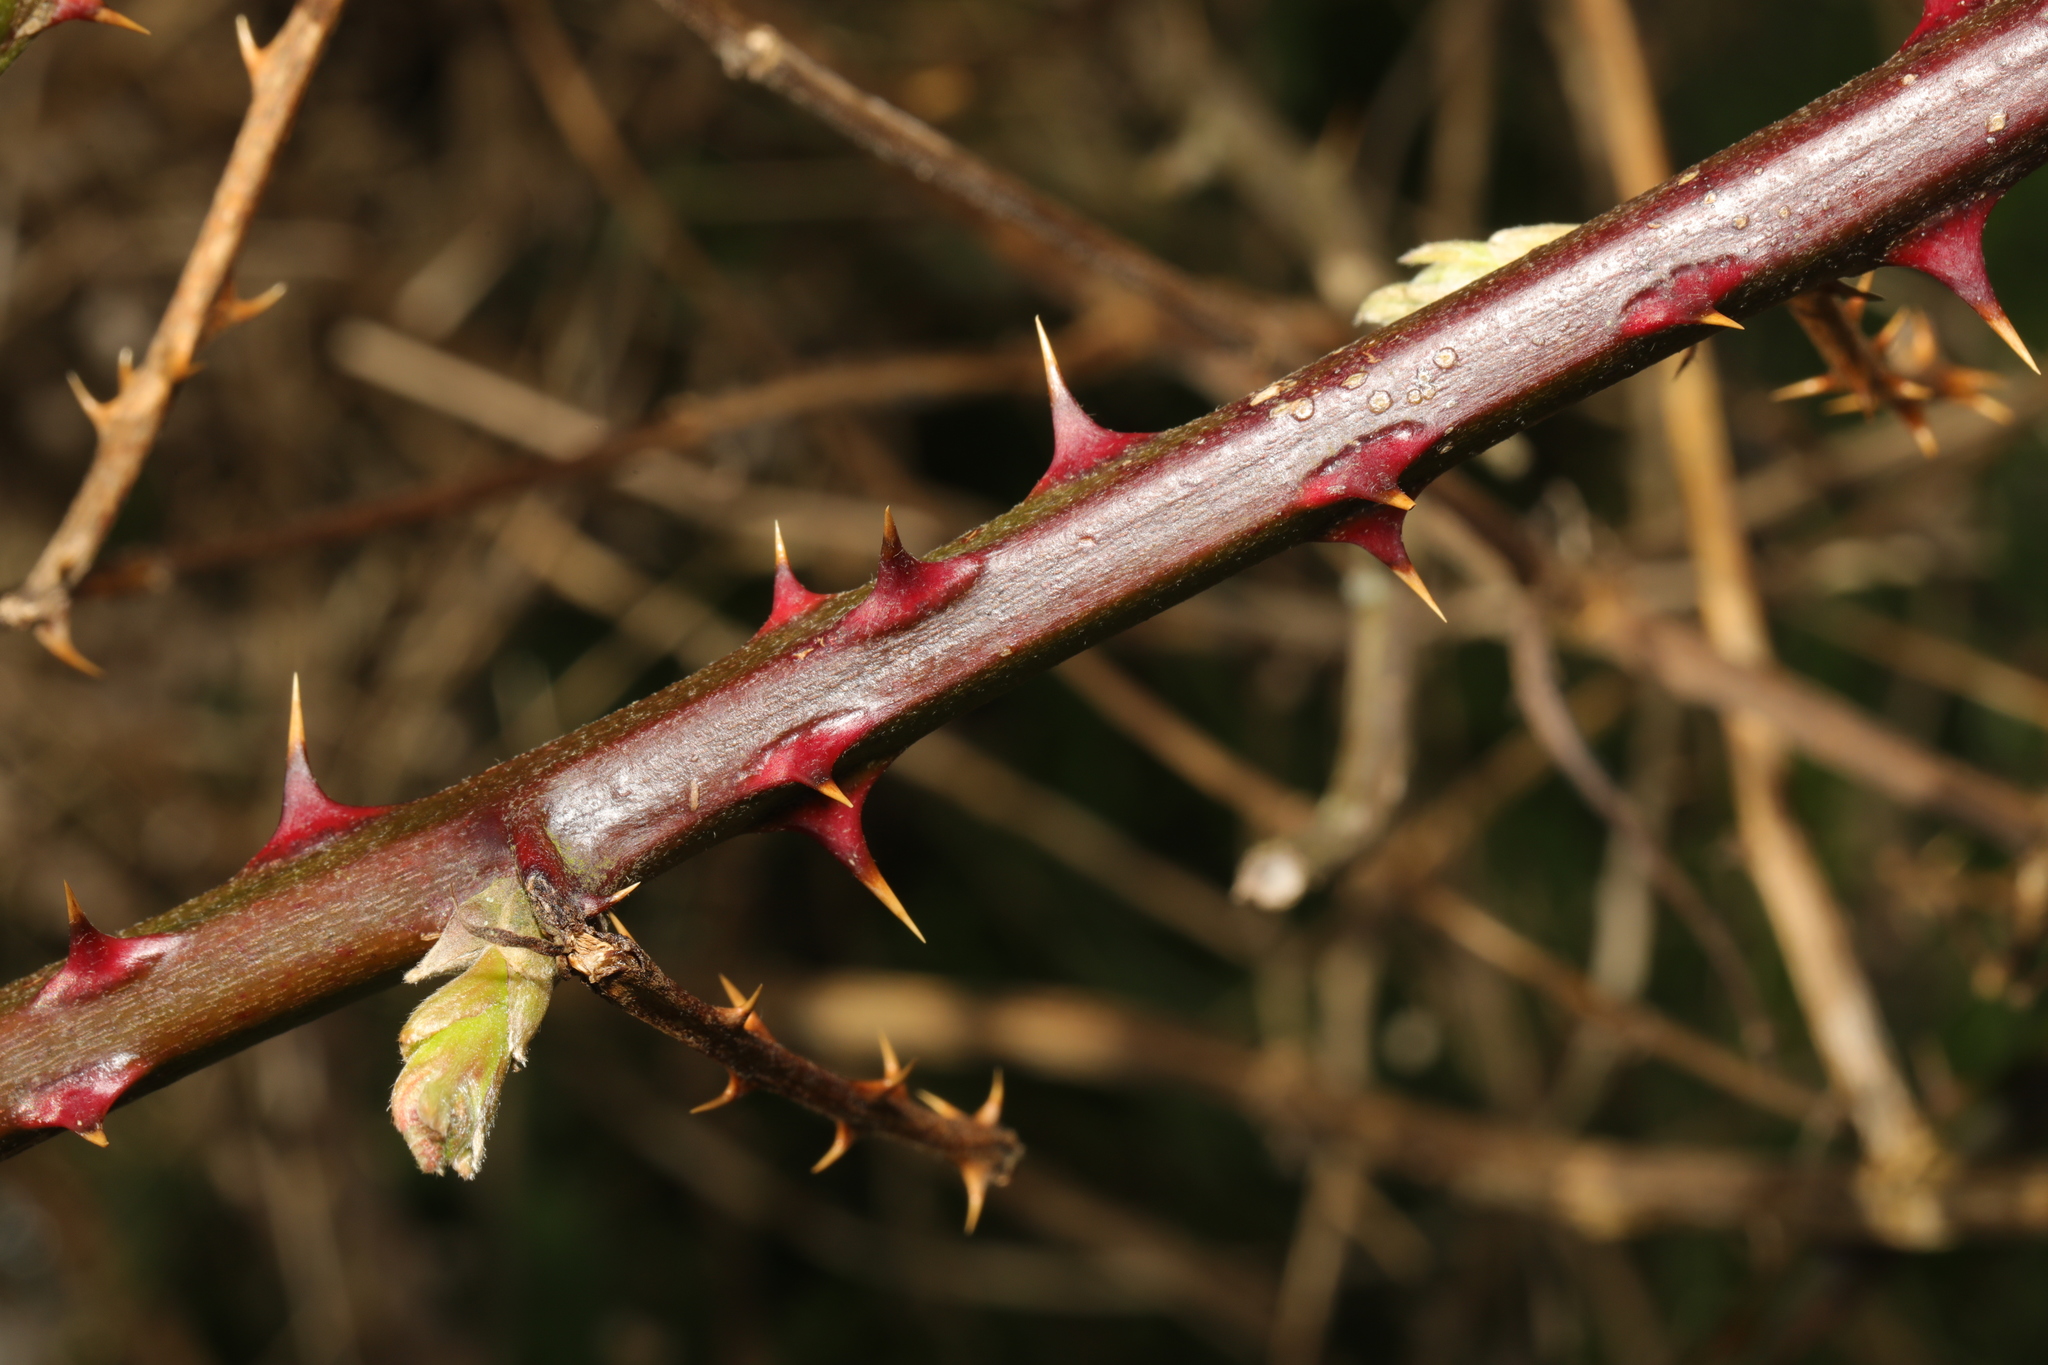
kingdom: Plantae
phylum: Tracheophyta
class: Magnoliopsida
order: Rosales
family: Rosaceae
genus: Rubus
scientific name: Rubus armeniacus
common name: Himalayan blackberry
